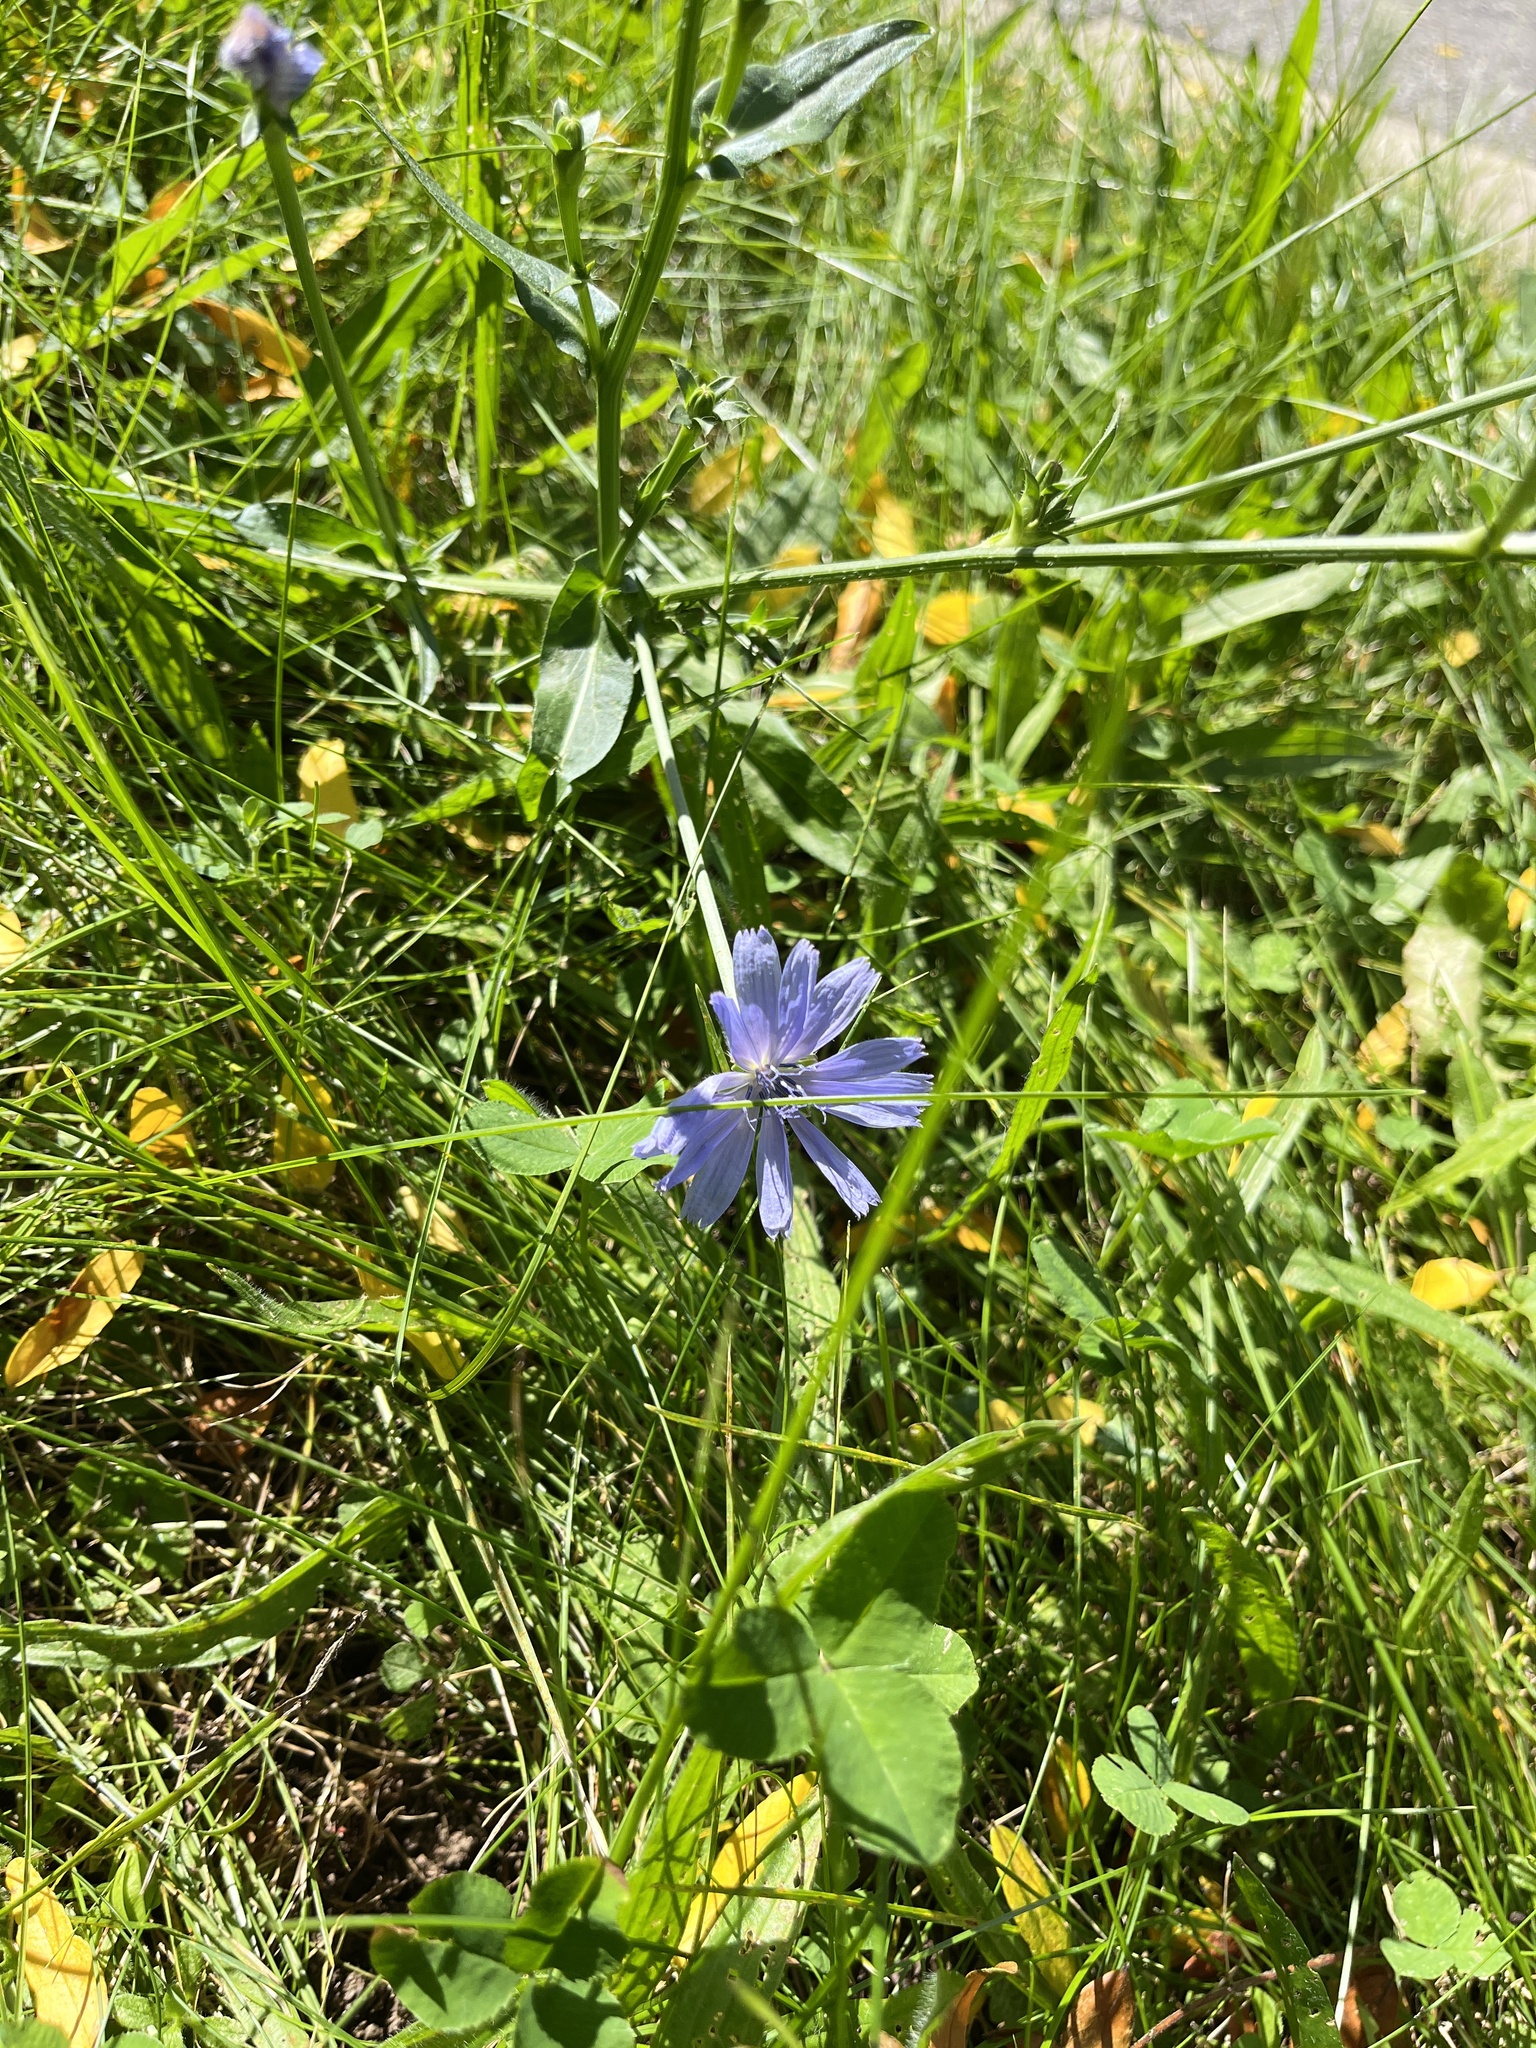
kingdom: Plantae
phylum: Tracheophyta
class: Magnoliopsida
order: Asterales
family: Asteraceae
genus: Cichorium
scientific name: Cichorium intybus
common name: Chicory
